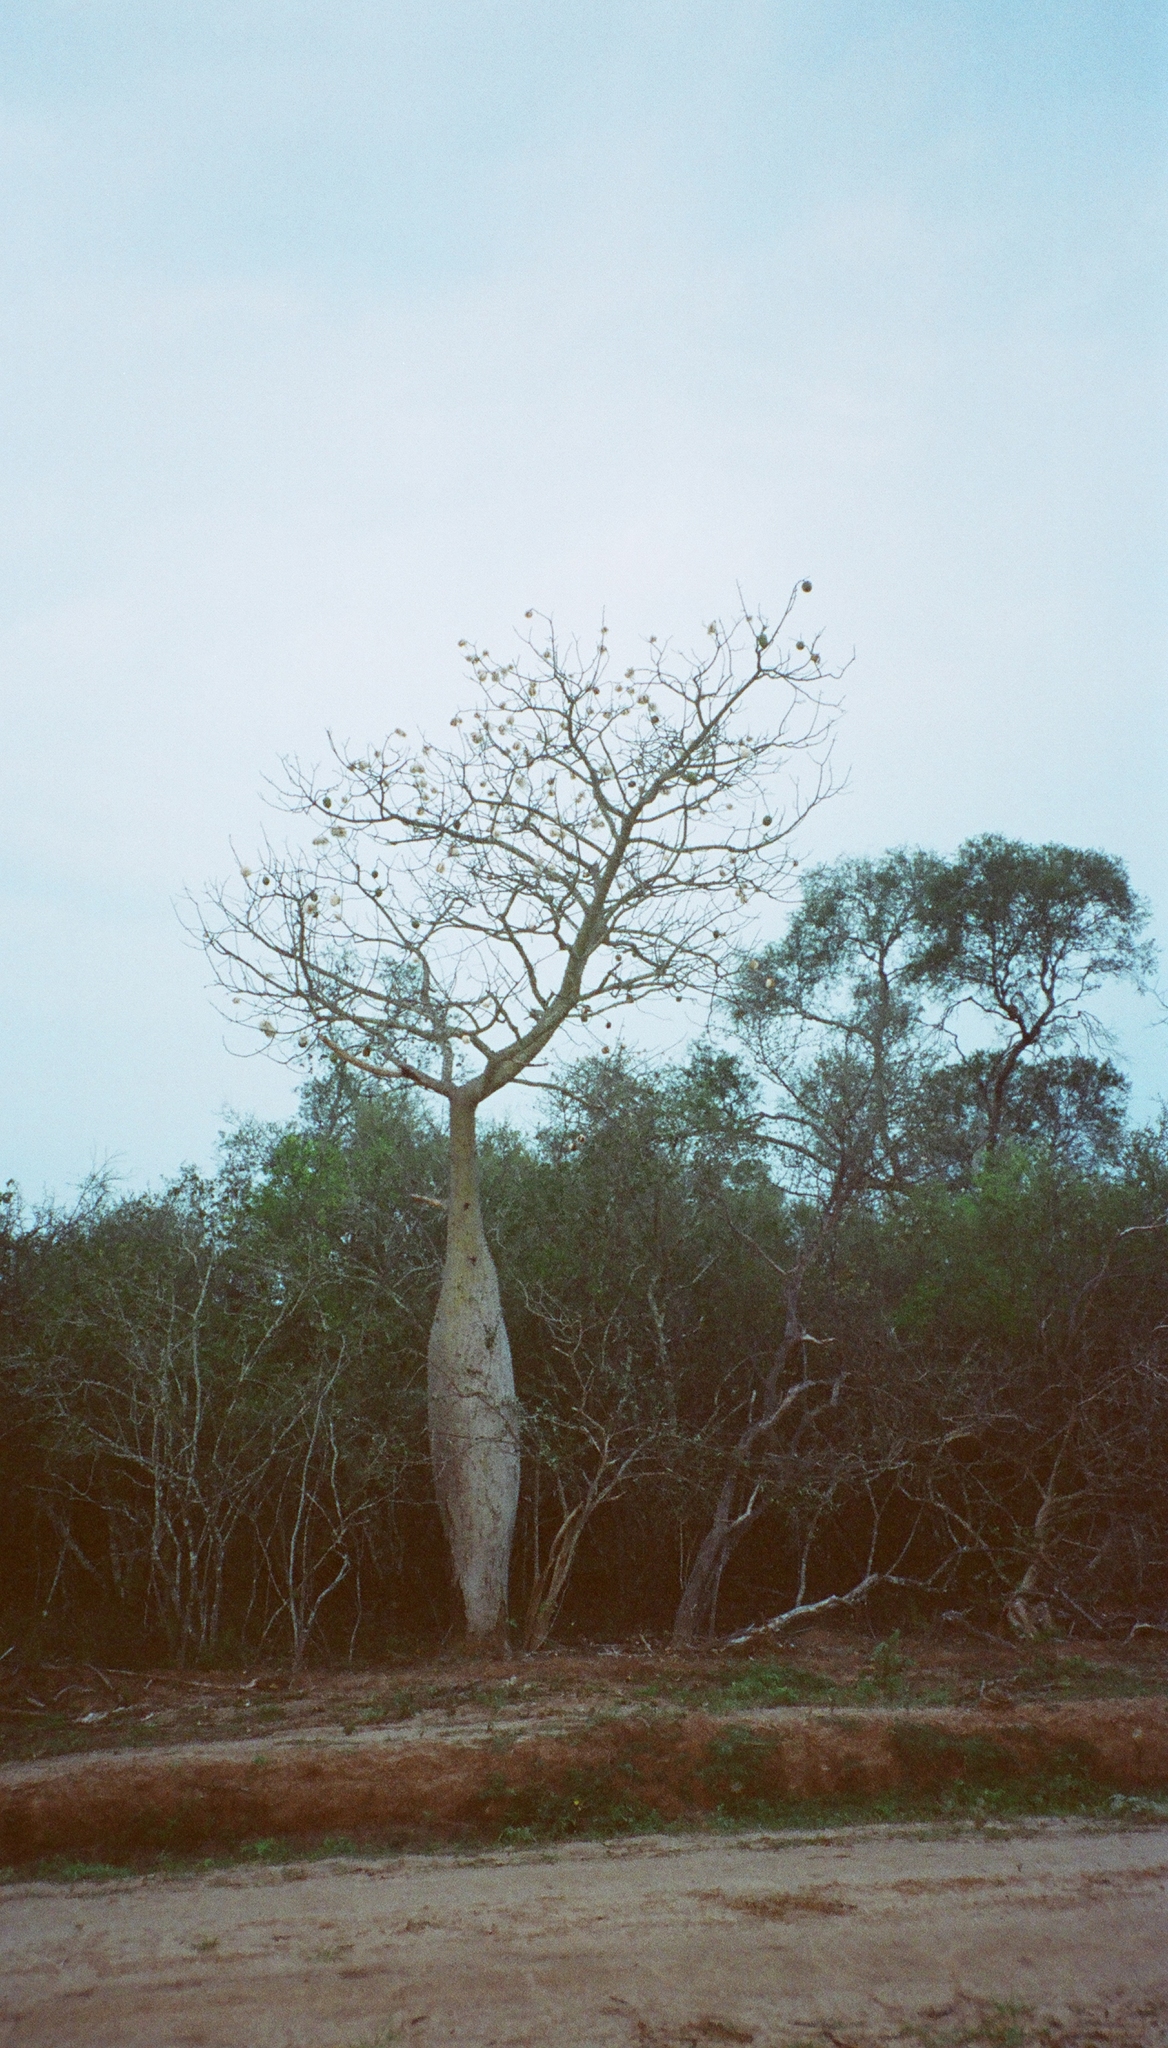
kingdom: Plantae
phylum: Tracheophyta
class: Magnoliopsida
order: Malvales
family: Malvaceae
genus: Ceiba
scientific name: Ceiba chodatii
